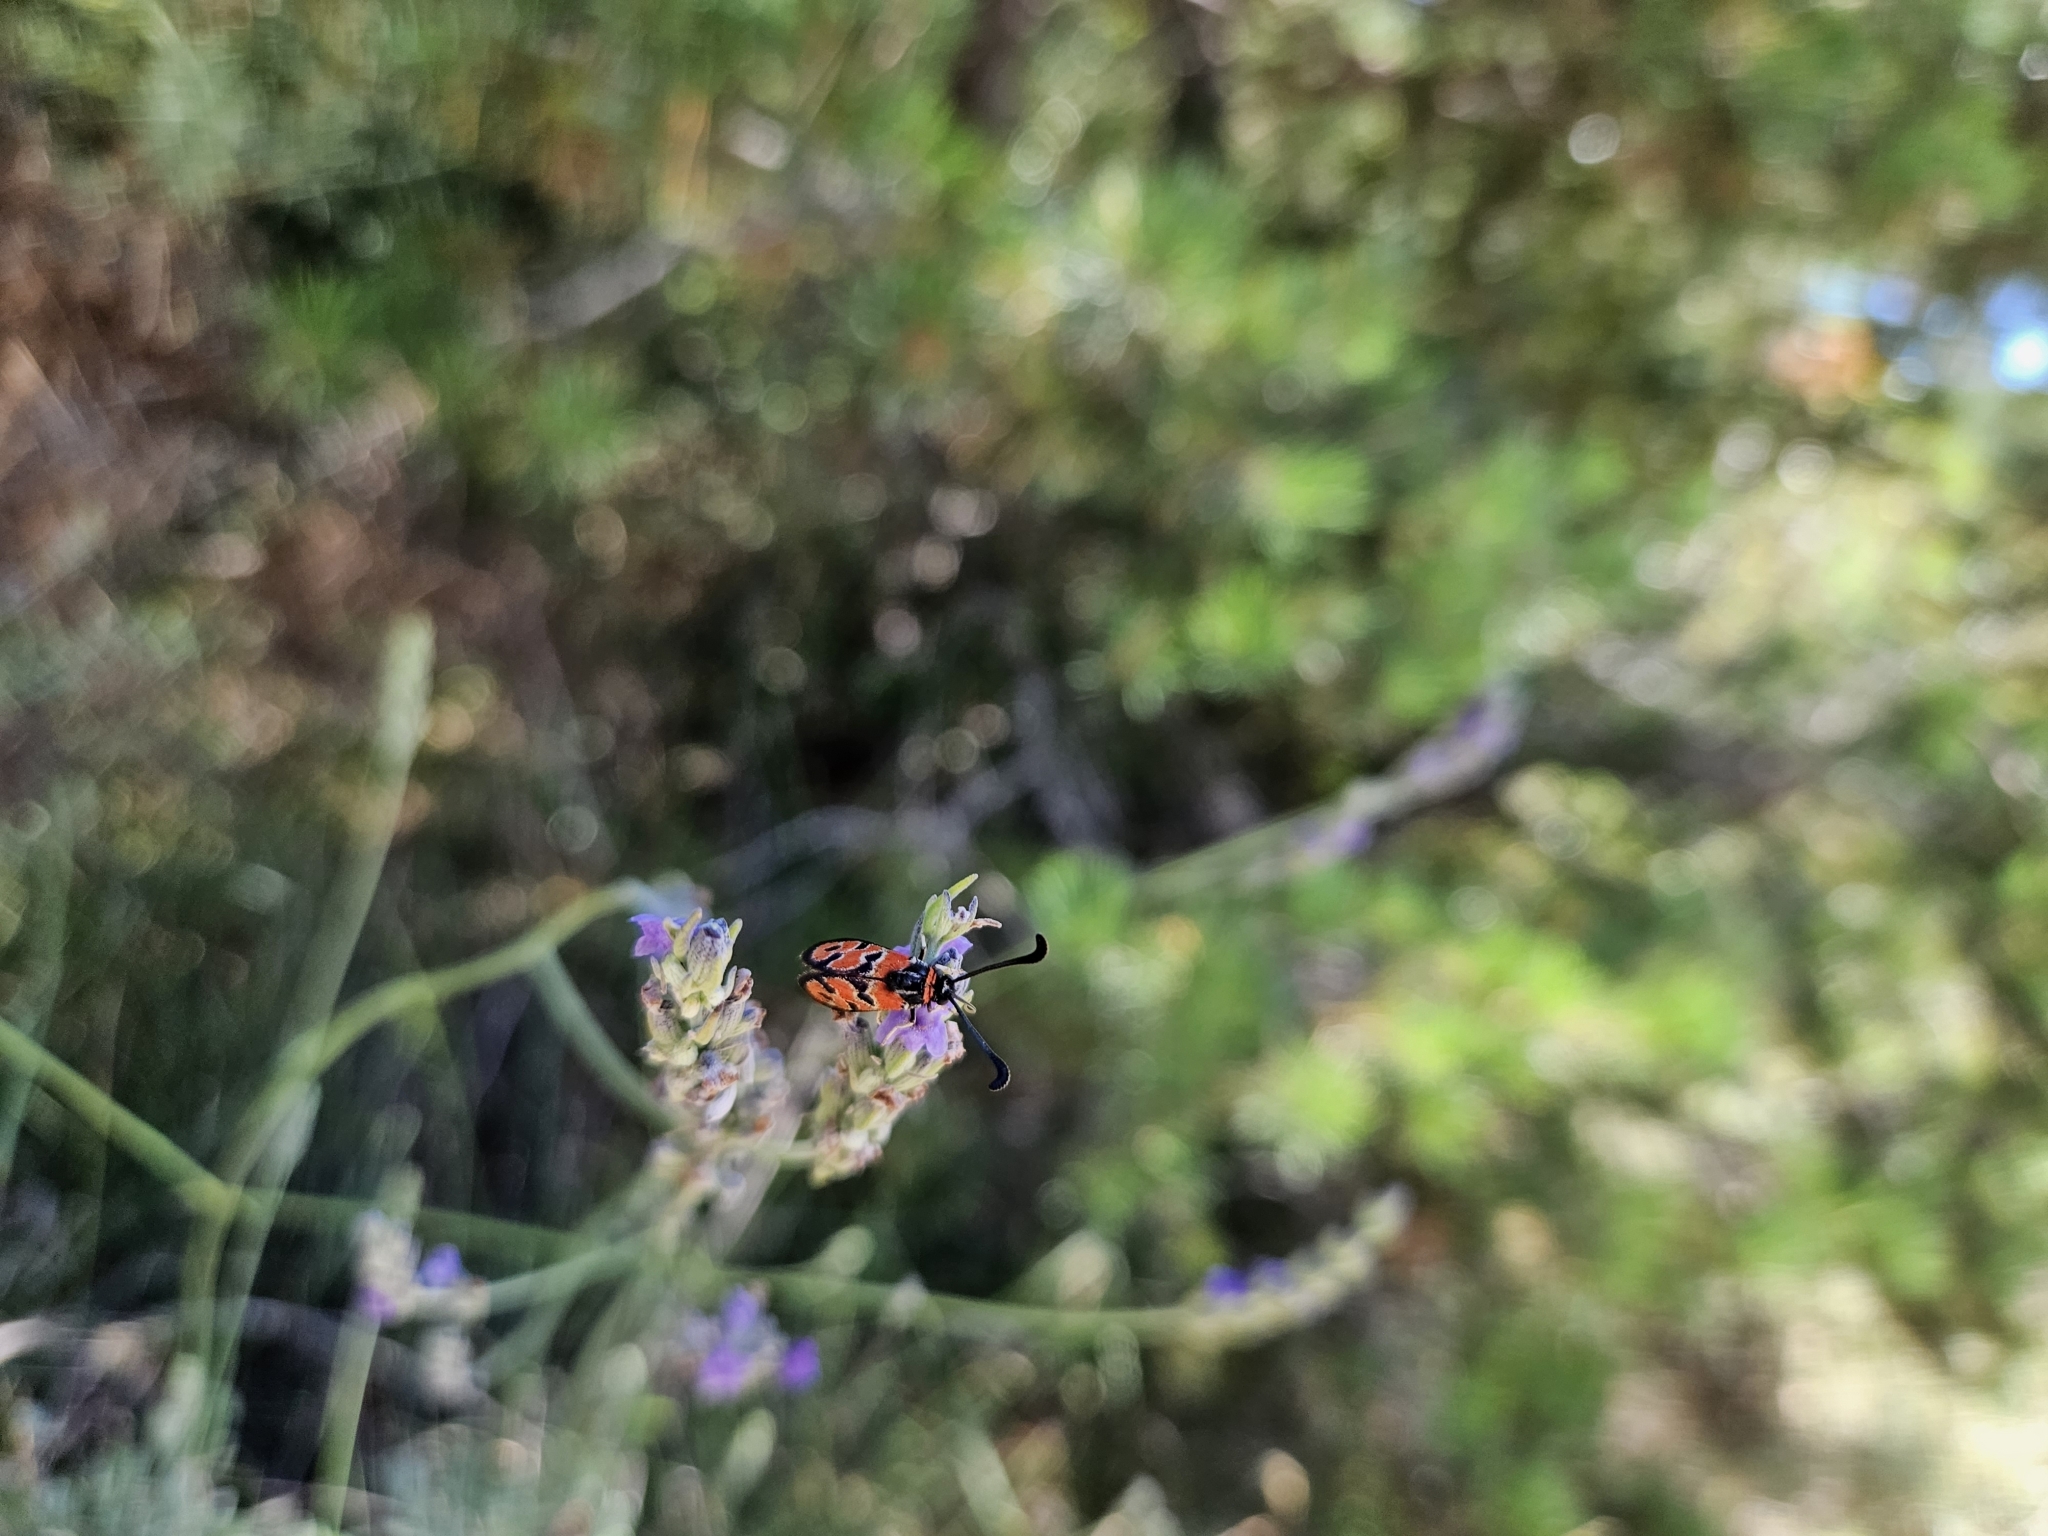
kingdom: Animalia
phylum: Arthropoda
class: Insecta
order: Lepidoptera
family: Zygaenidae
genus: Zygaena
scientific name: Zygaena fausta
